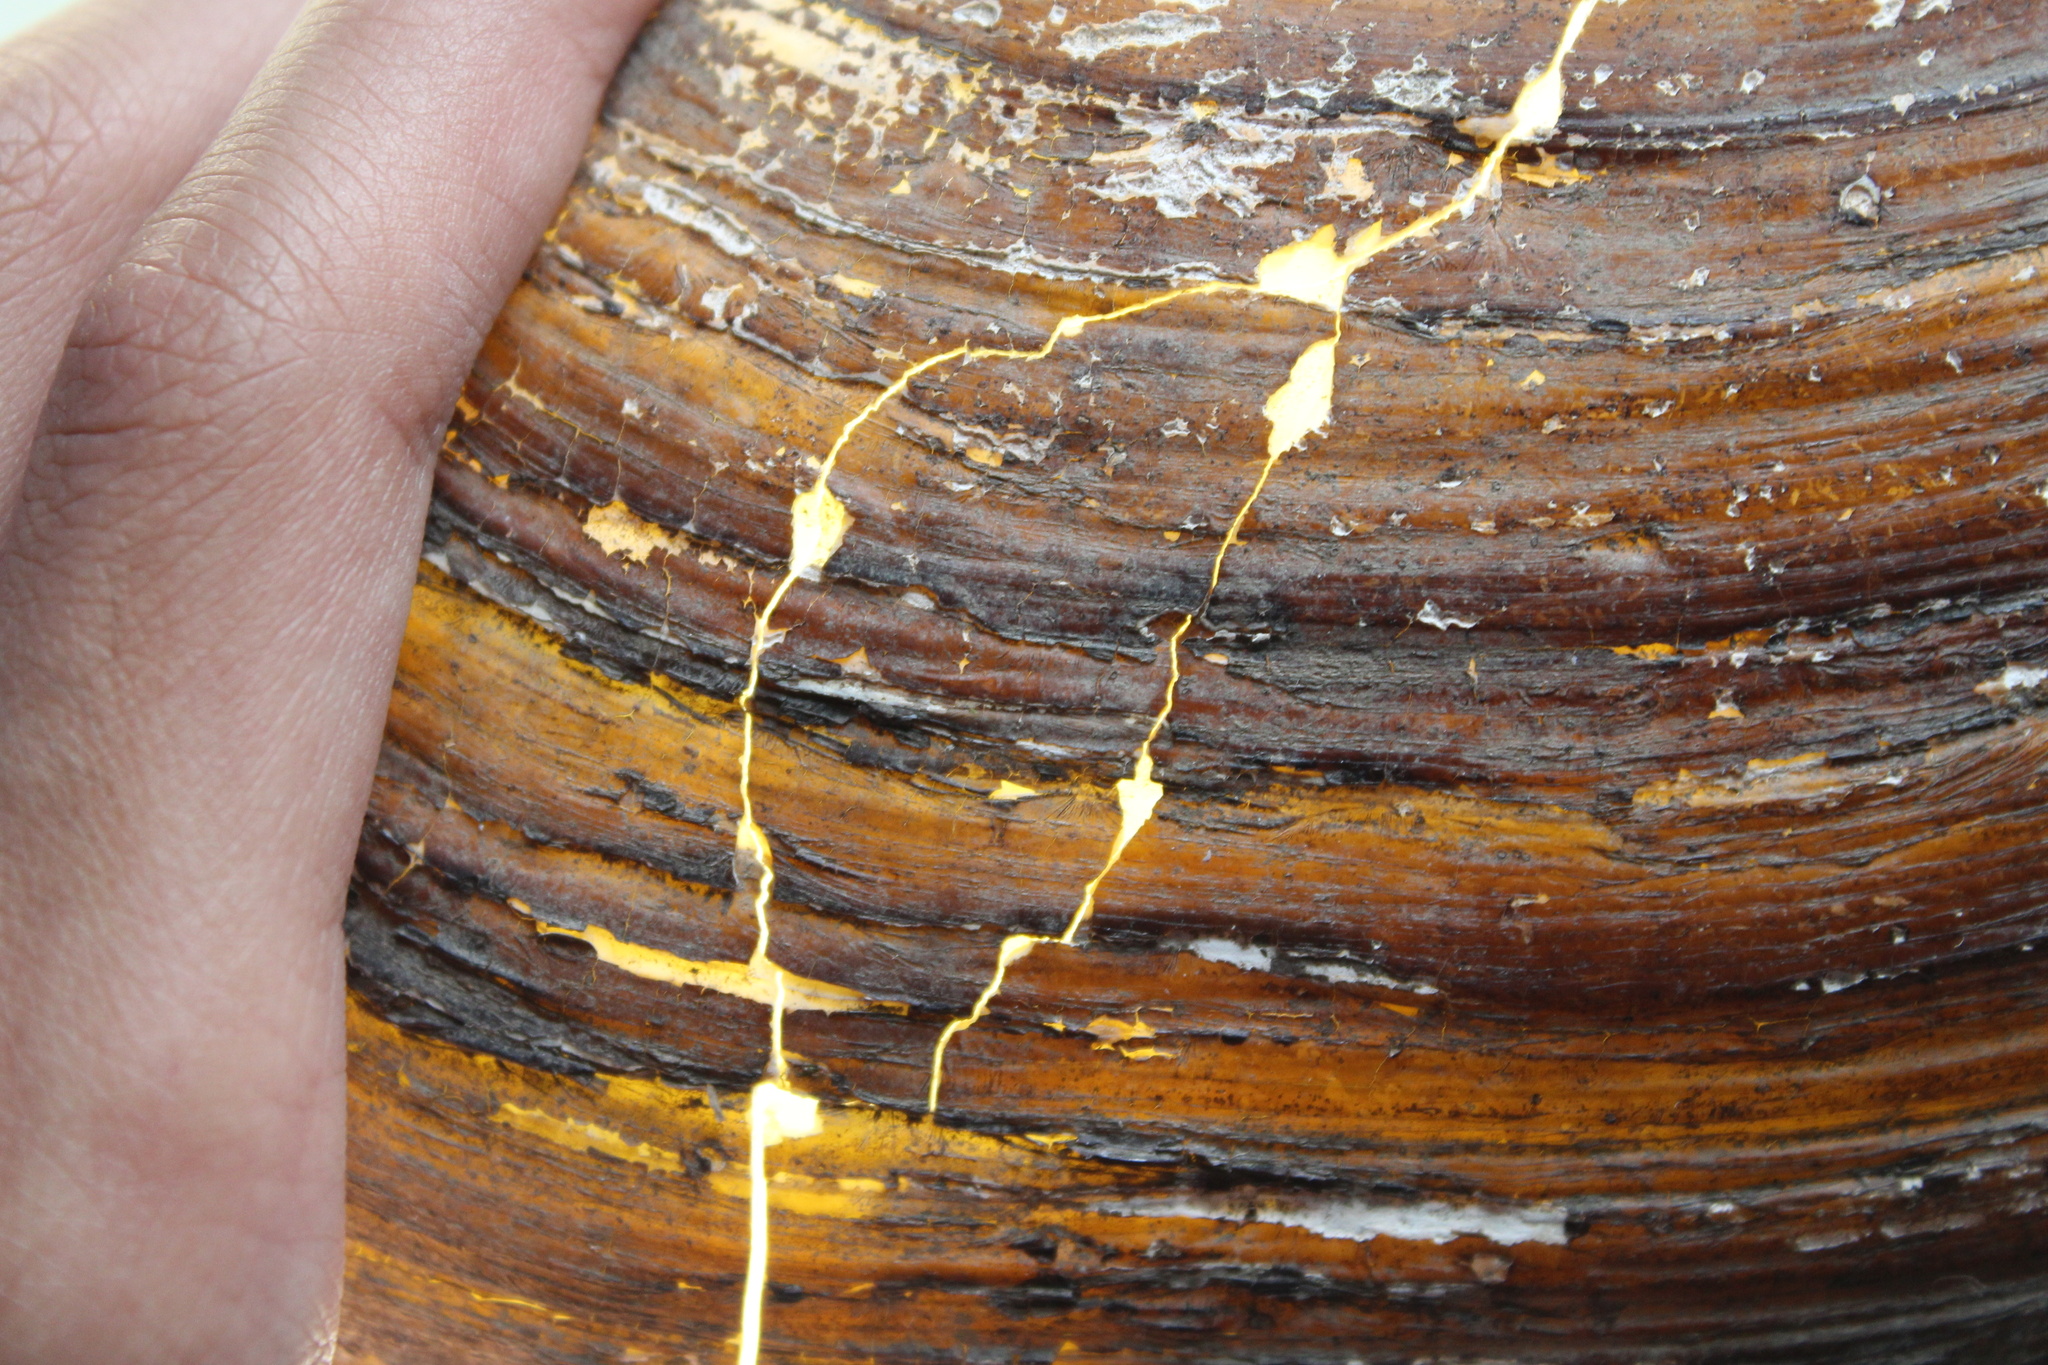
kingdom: Animalia
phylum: Mollusca
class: Bivalvia
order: Unionida
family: Unionidae
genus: Pyganodon
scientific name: Pyganodon grandis
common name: Giant floater
